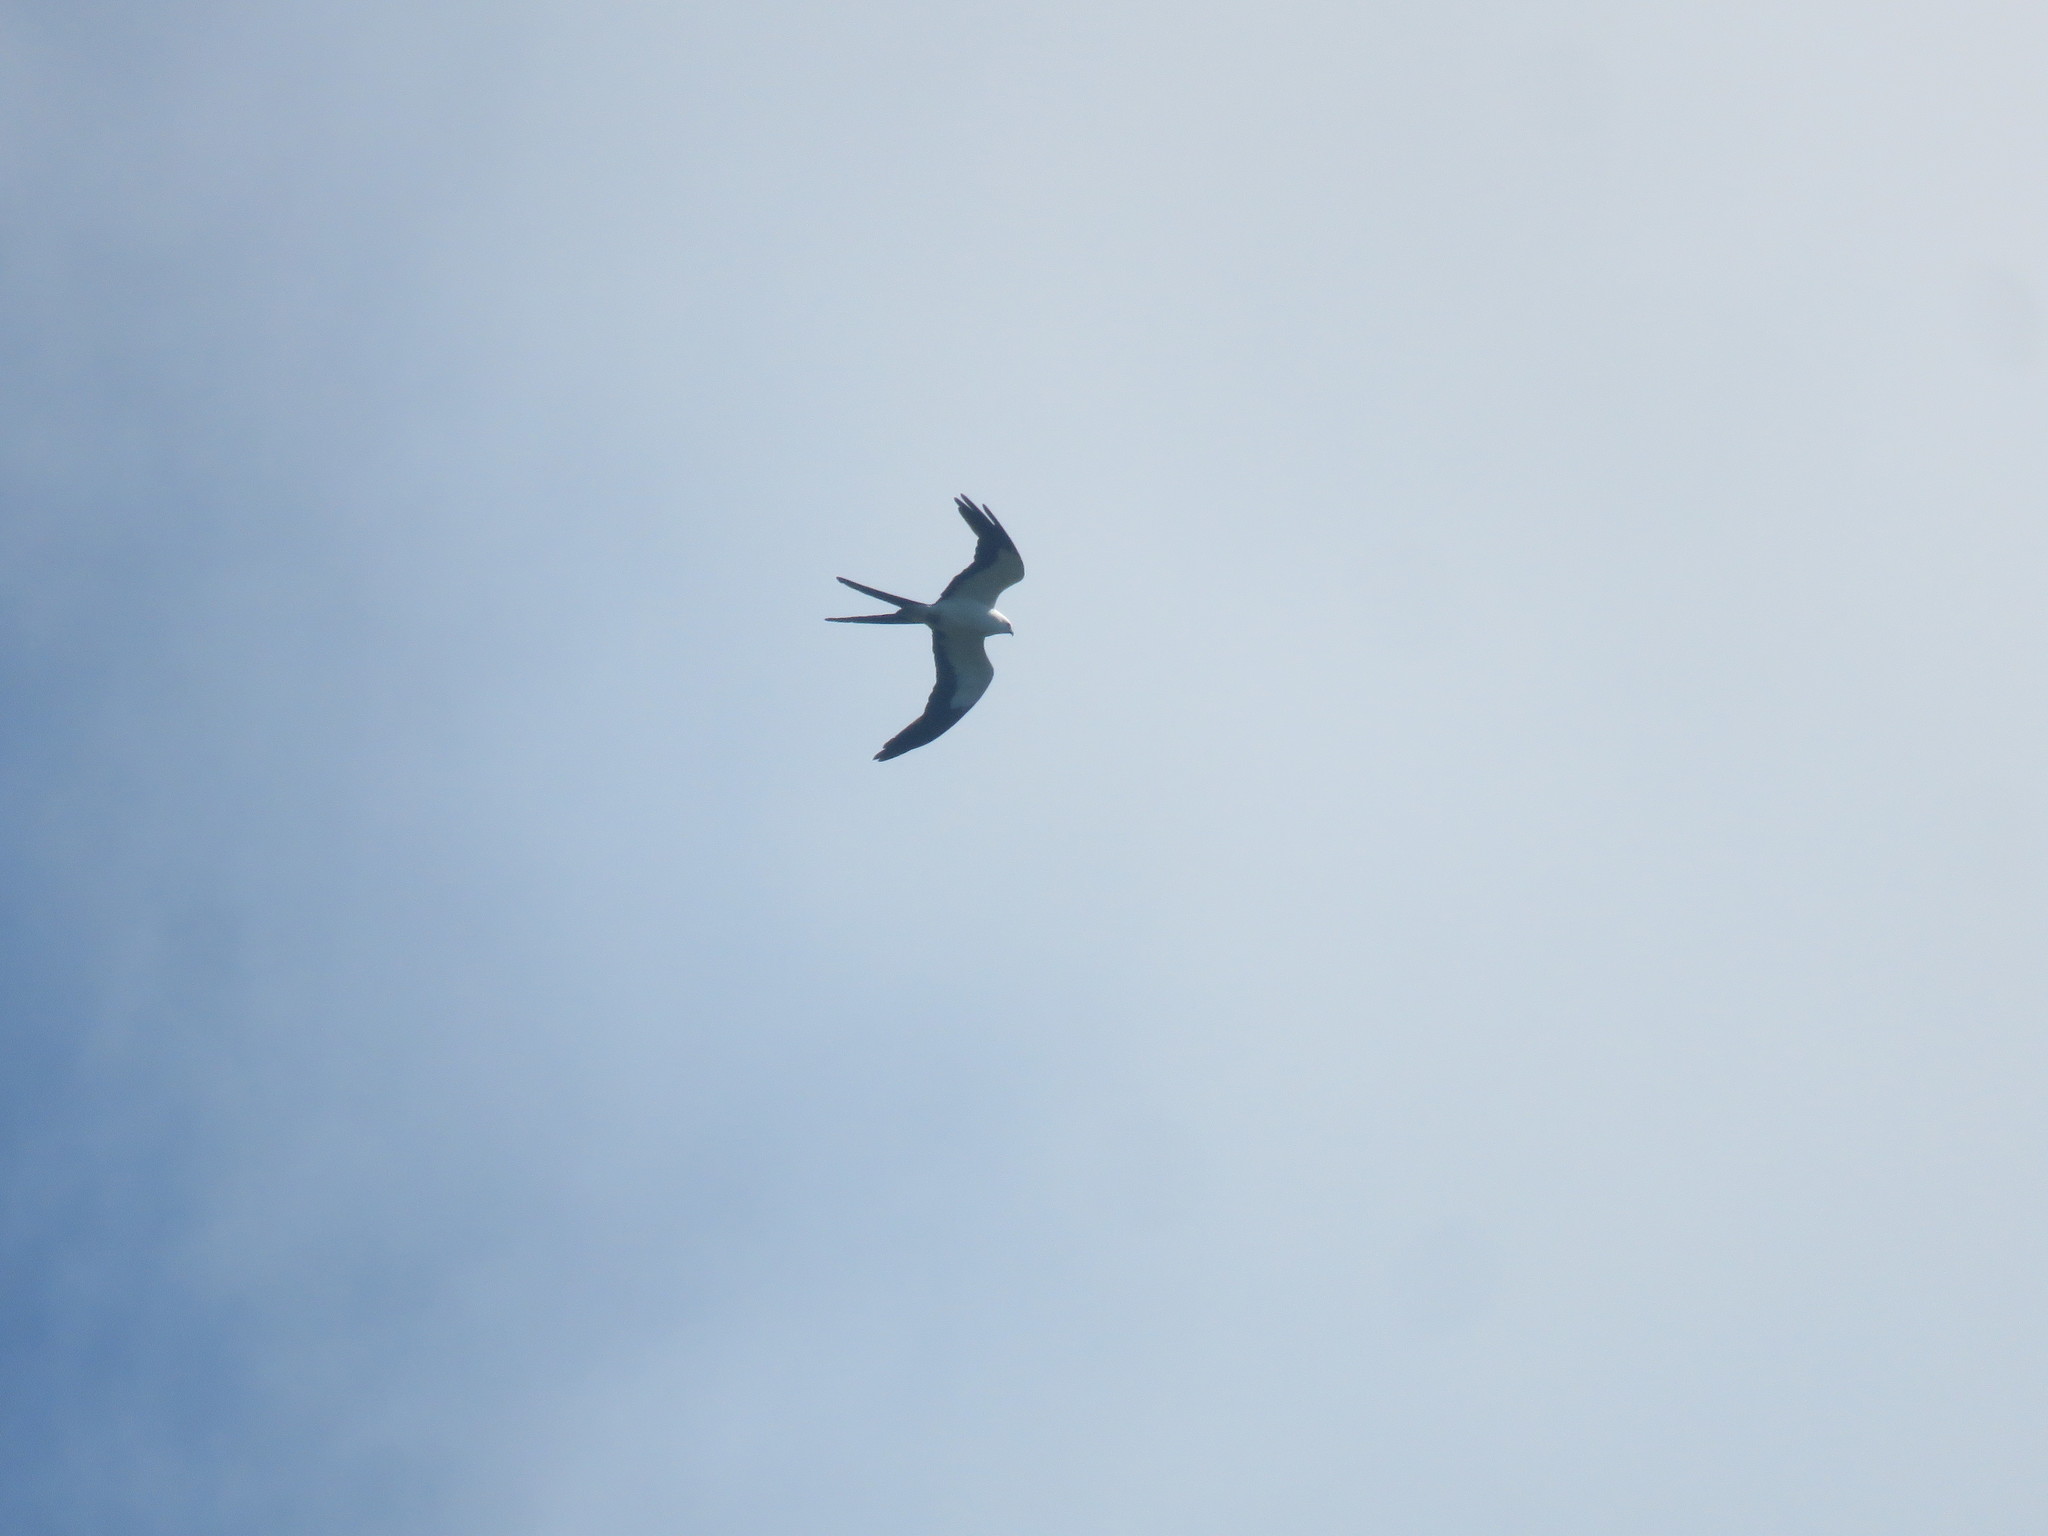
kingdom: Animalia
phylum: Chordata
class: Aves
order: Accipitriformes
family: Accipitridae
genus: Elanoides
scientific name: Elanoides forficatus
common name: Swallow-tailed kite
